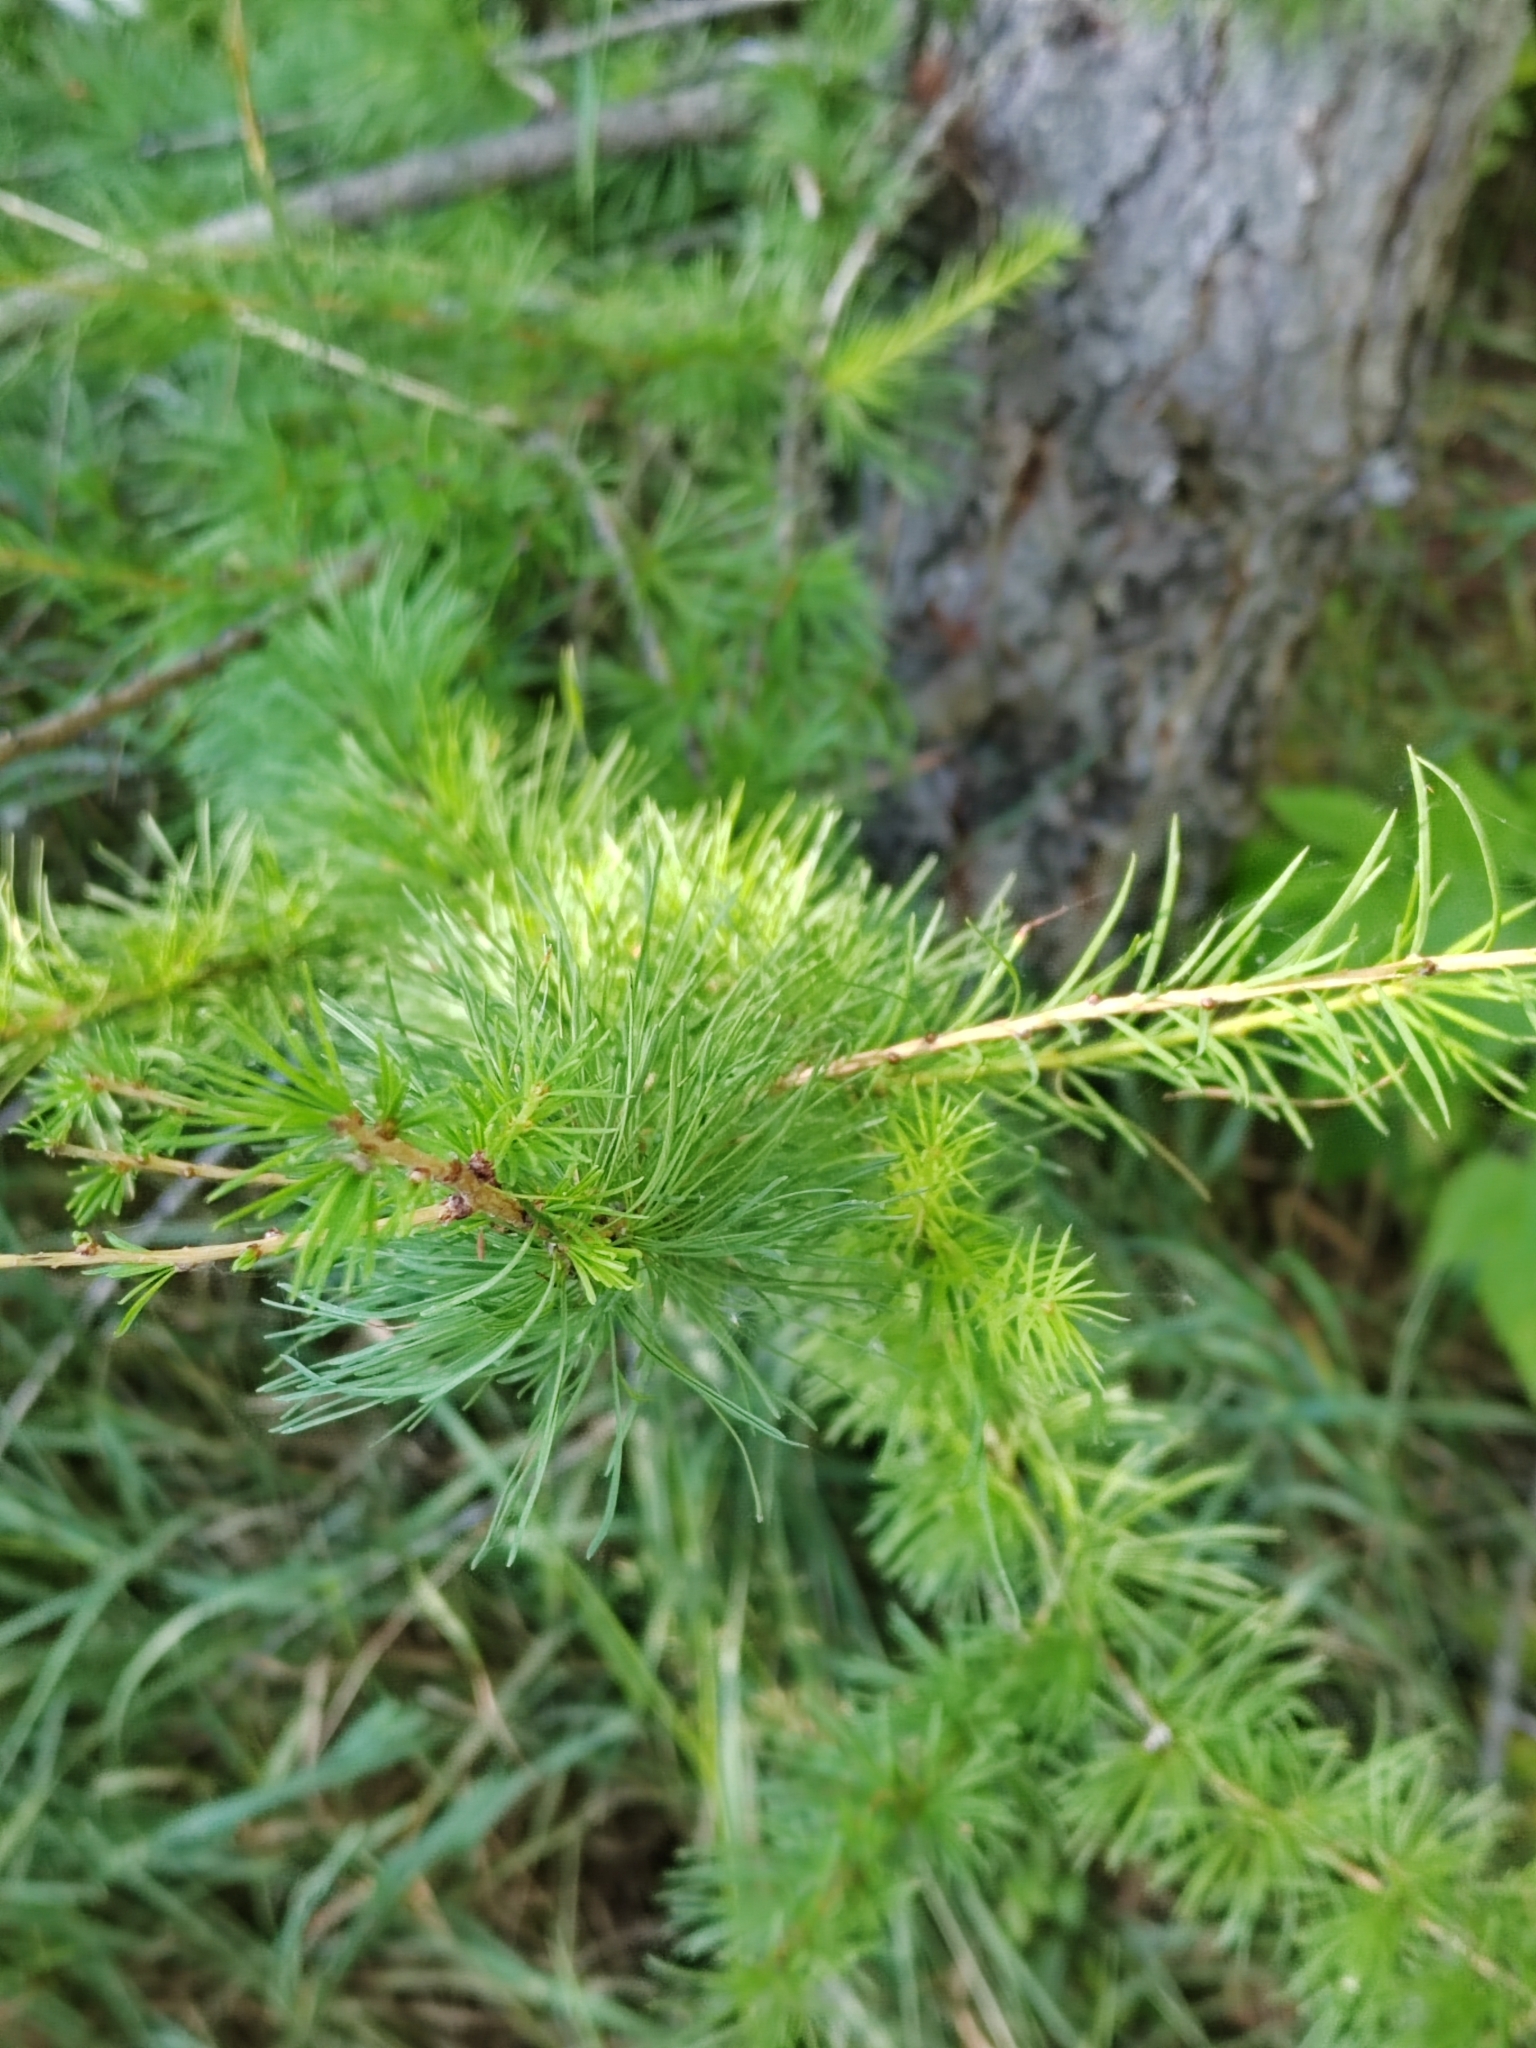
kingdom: Plantae
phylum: Tracheophyta
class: Pinopsida
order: Pinales
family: Pinaceae
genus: Larix
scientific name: Larix sibirica
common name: Siberian larch
